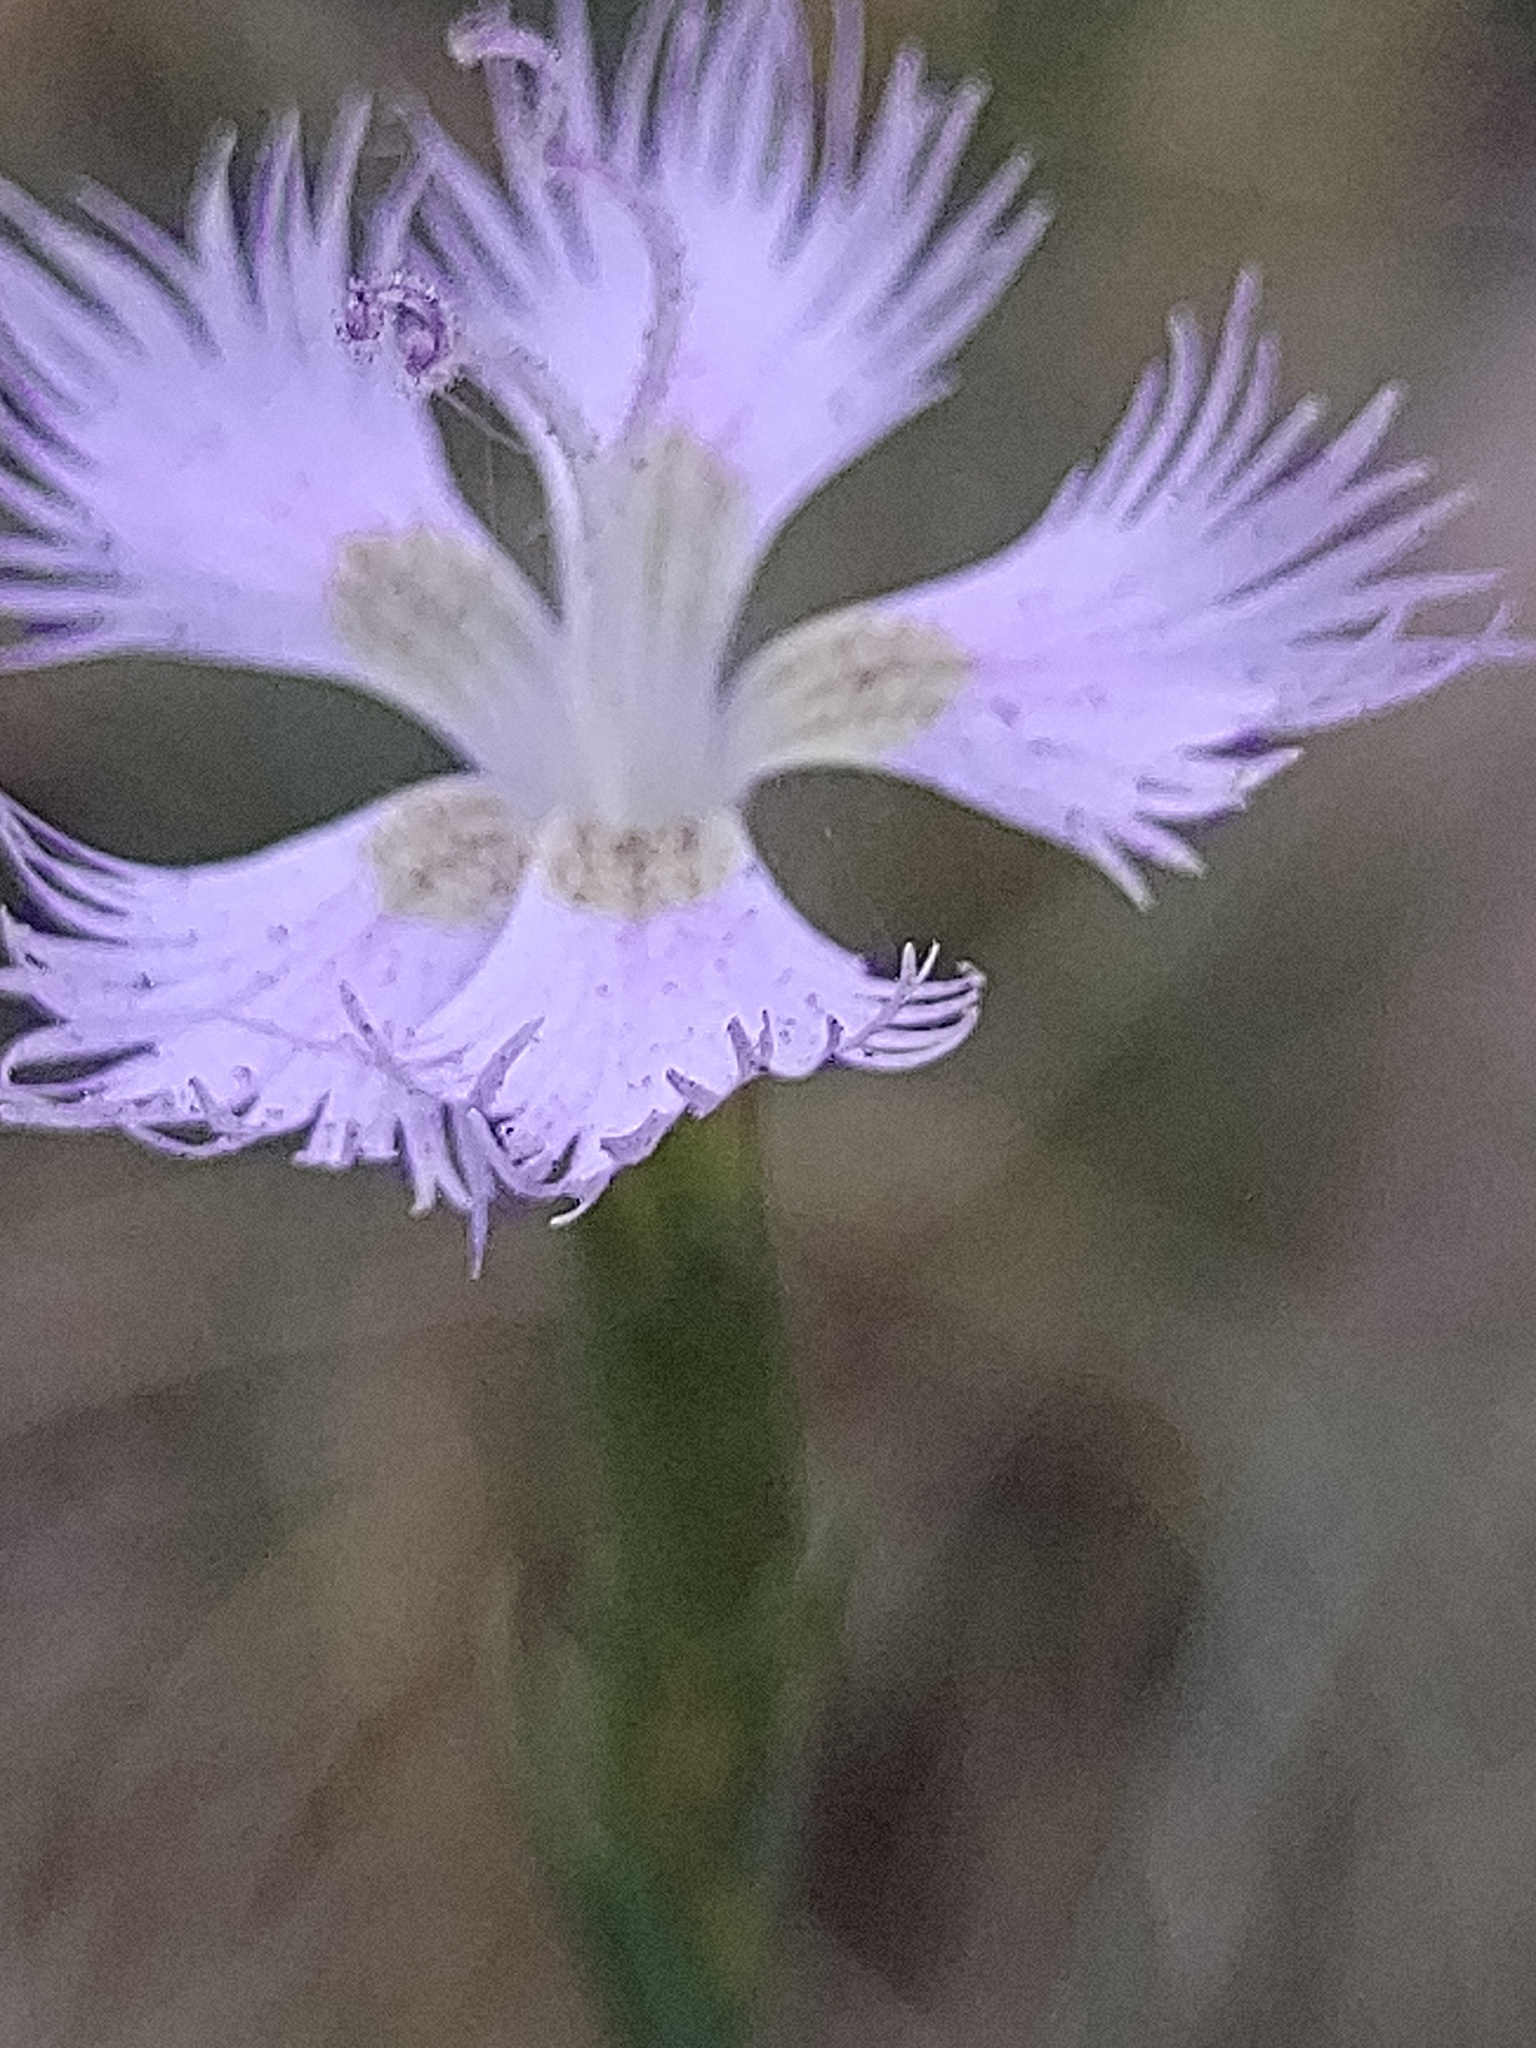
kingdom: Plantae
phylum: Tracheophyta
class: Magnoliopsida
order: Caryophyllales
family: Caryophyllaceae
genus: Dianthus
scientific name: Dianthus hyssopifolius
